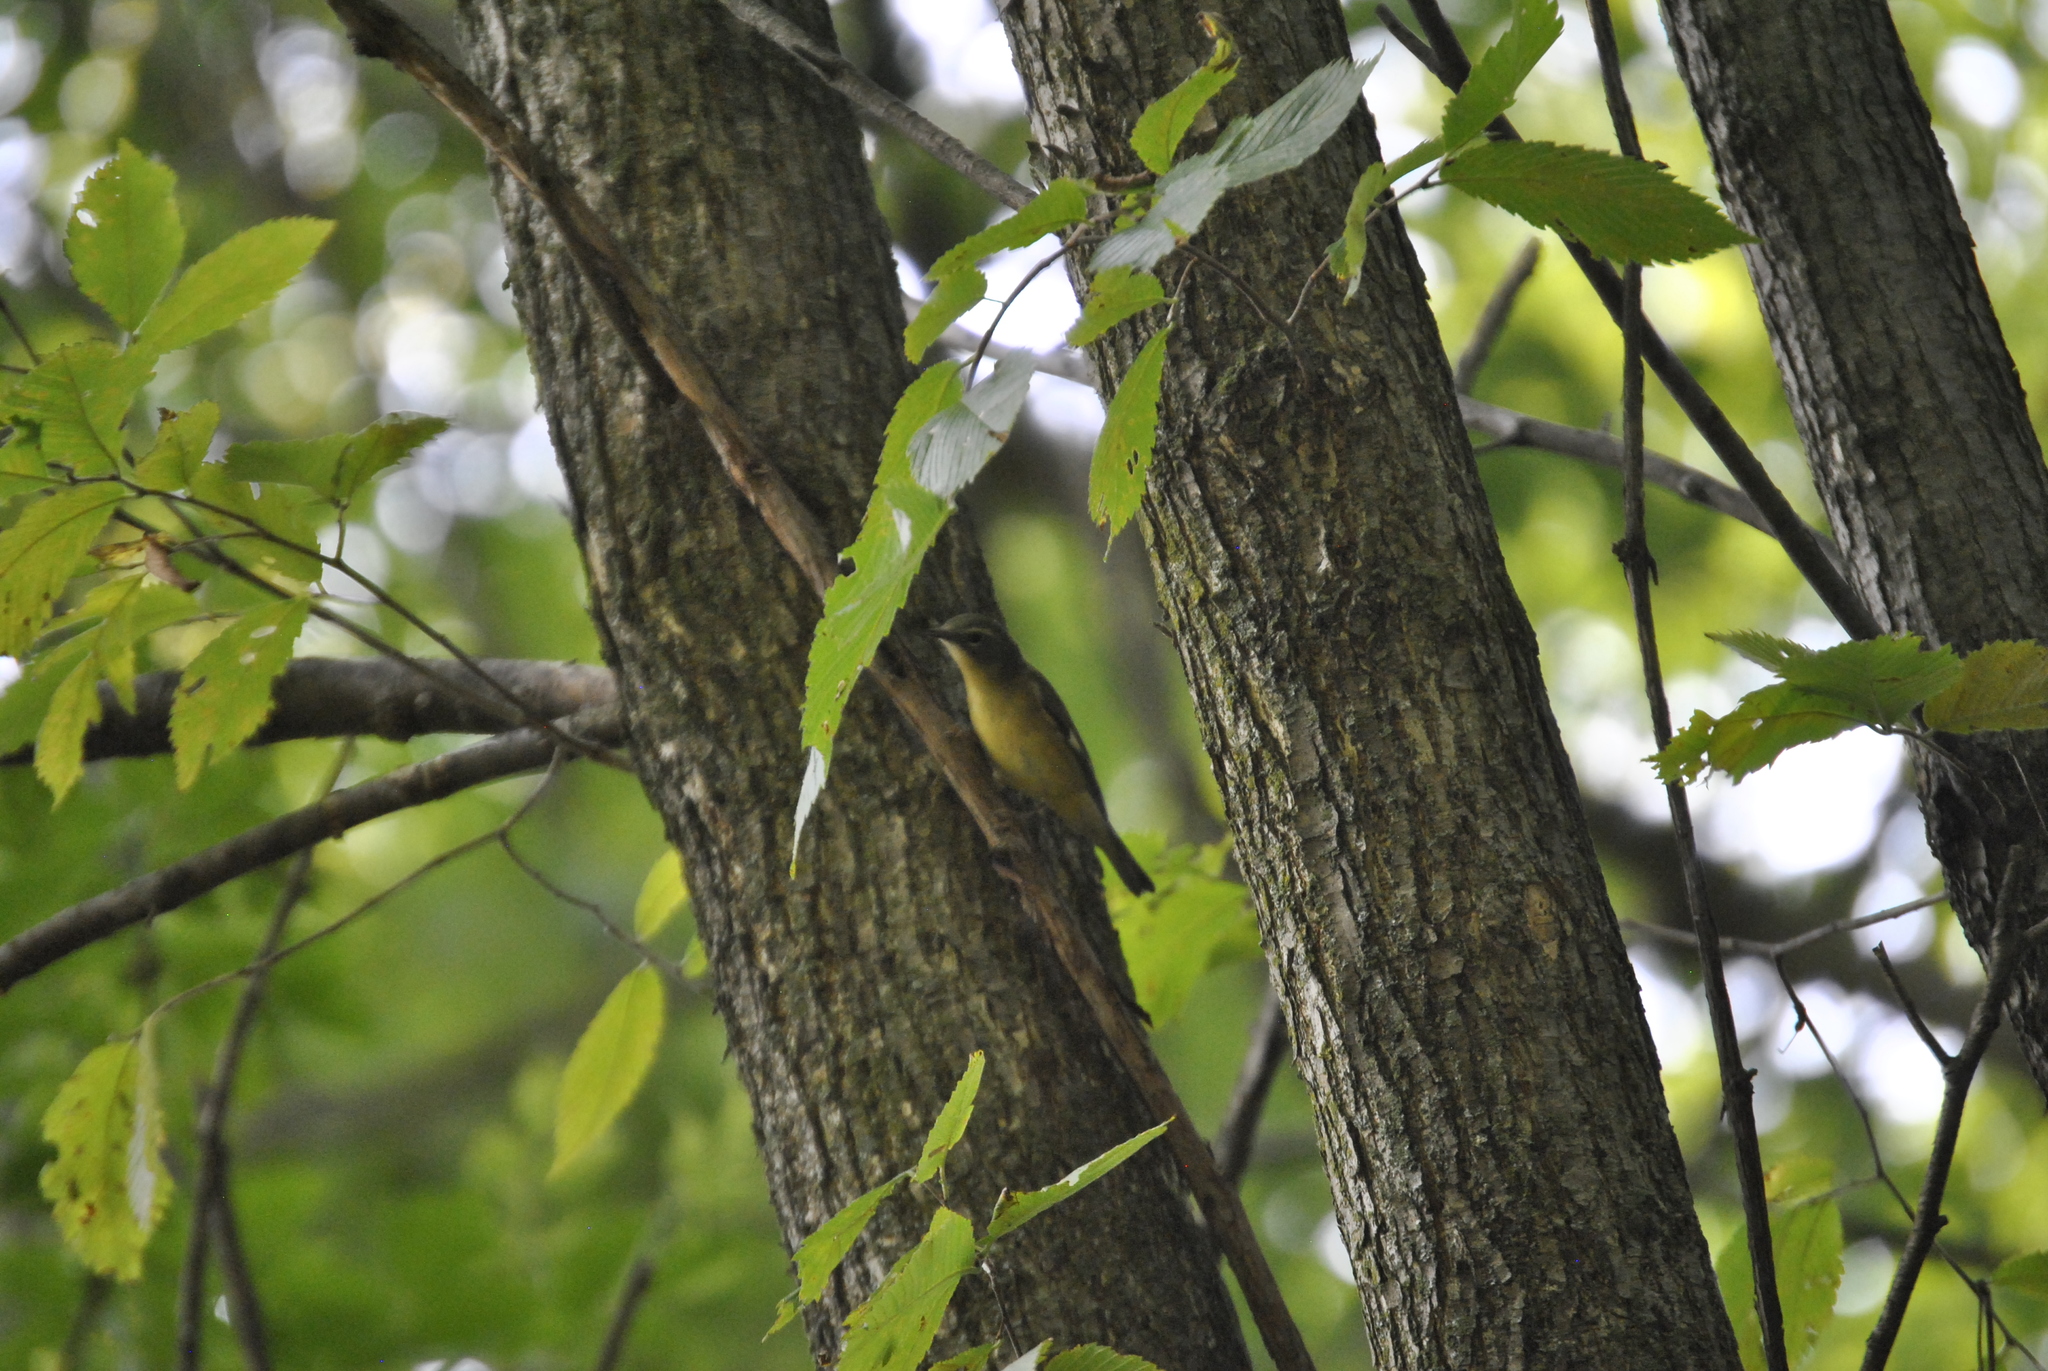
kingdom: Animalia
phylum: Chordata
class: Aves
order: Passeriformes
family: Parulidae
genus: Setophaga
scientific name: Setophaga caerulescens
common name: Black-throated blue warbler
